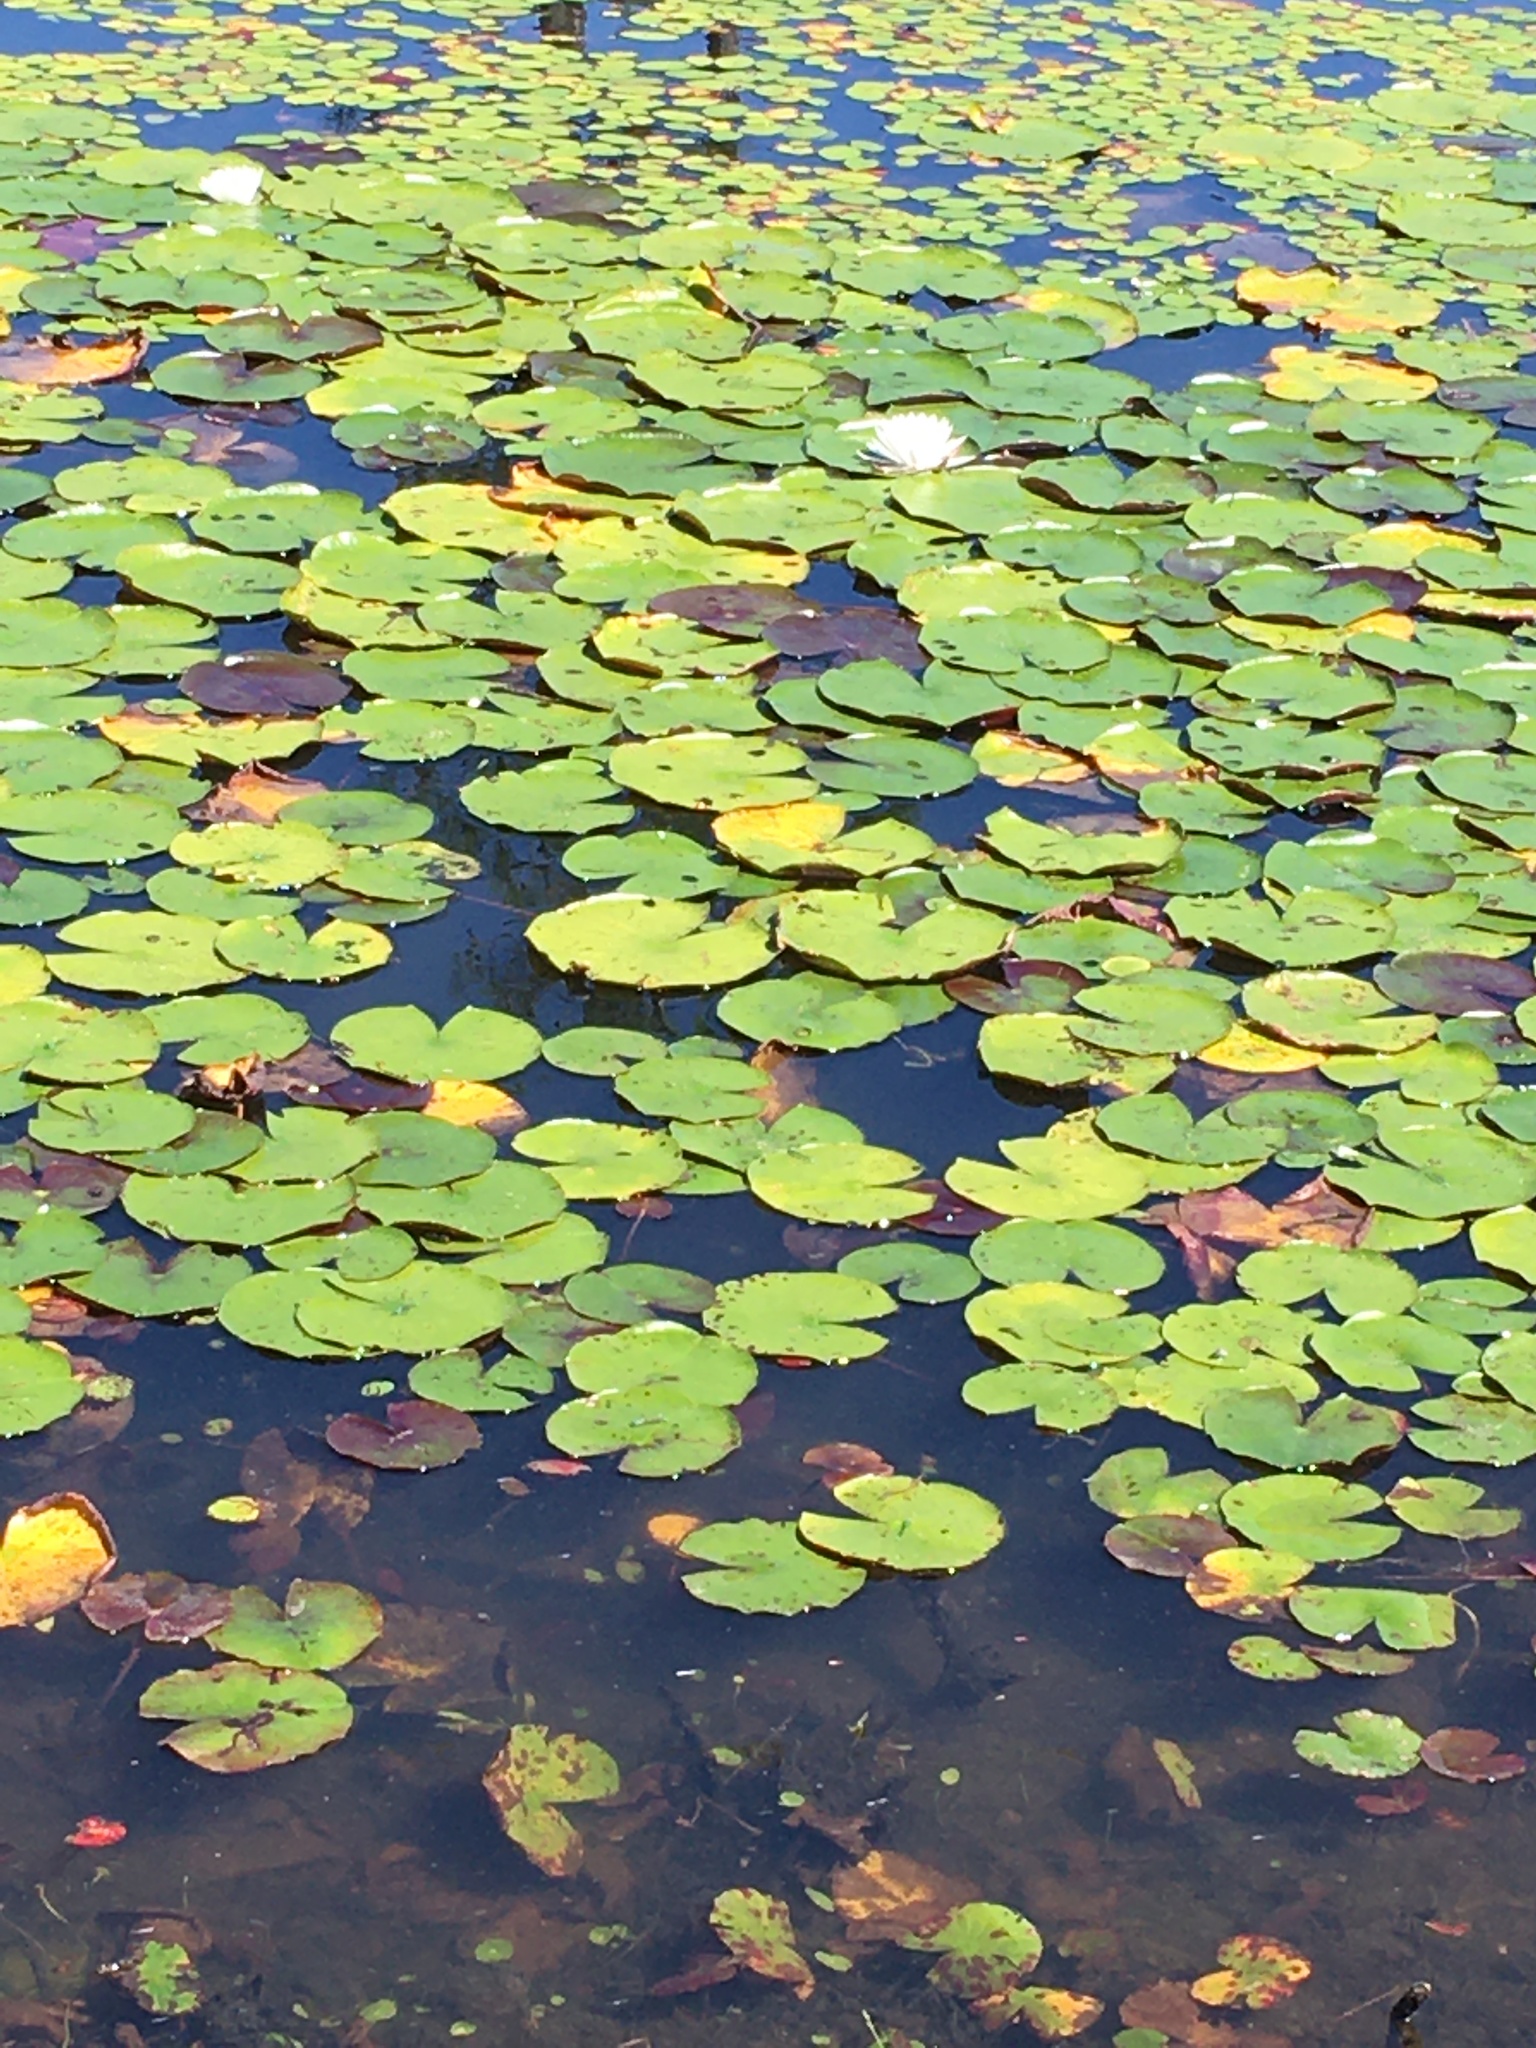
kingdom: Plantae
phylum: Tracheophyta
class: Magnoliopsida
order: Nymphaeales
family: Nymphaeaceae
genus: Nymphaea
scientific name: Nymphaea odorata
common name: Fragrant water-lily
